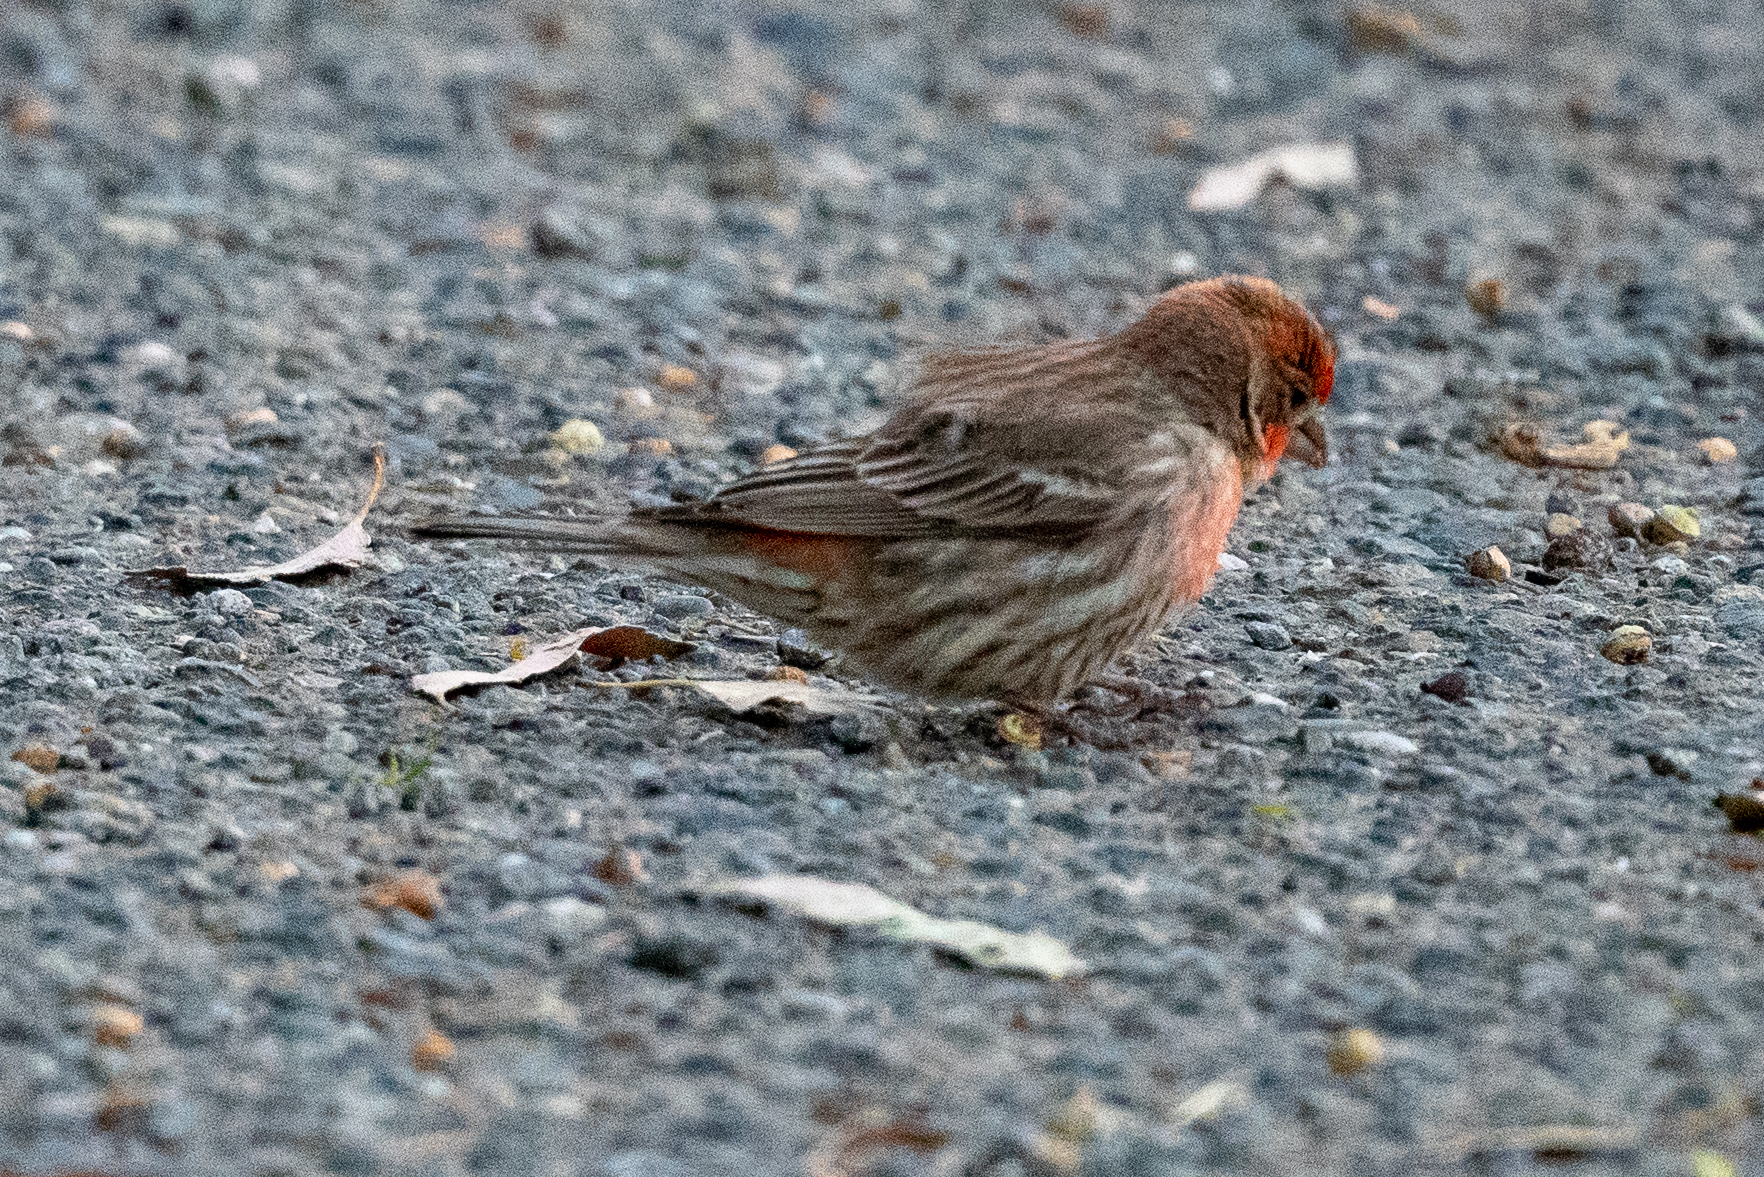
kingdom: Animalia
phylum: Chordata
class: Aves
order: Passeriformes
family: Fringillidae
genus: Haemorhous
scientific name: Haemorhous mexicanus
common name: House finch
